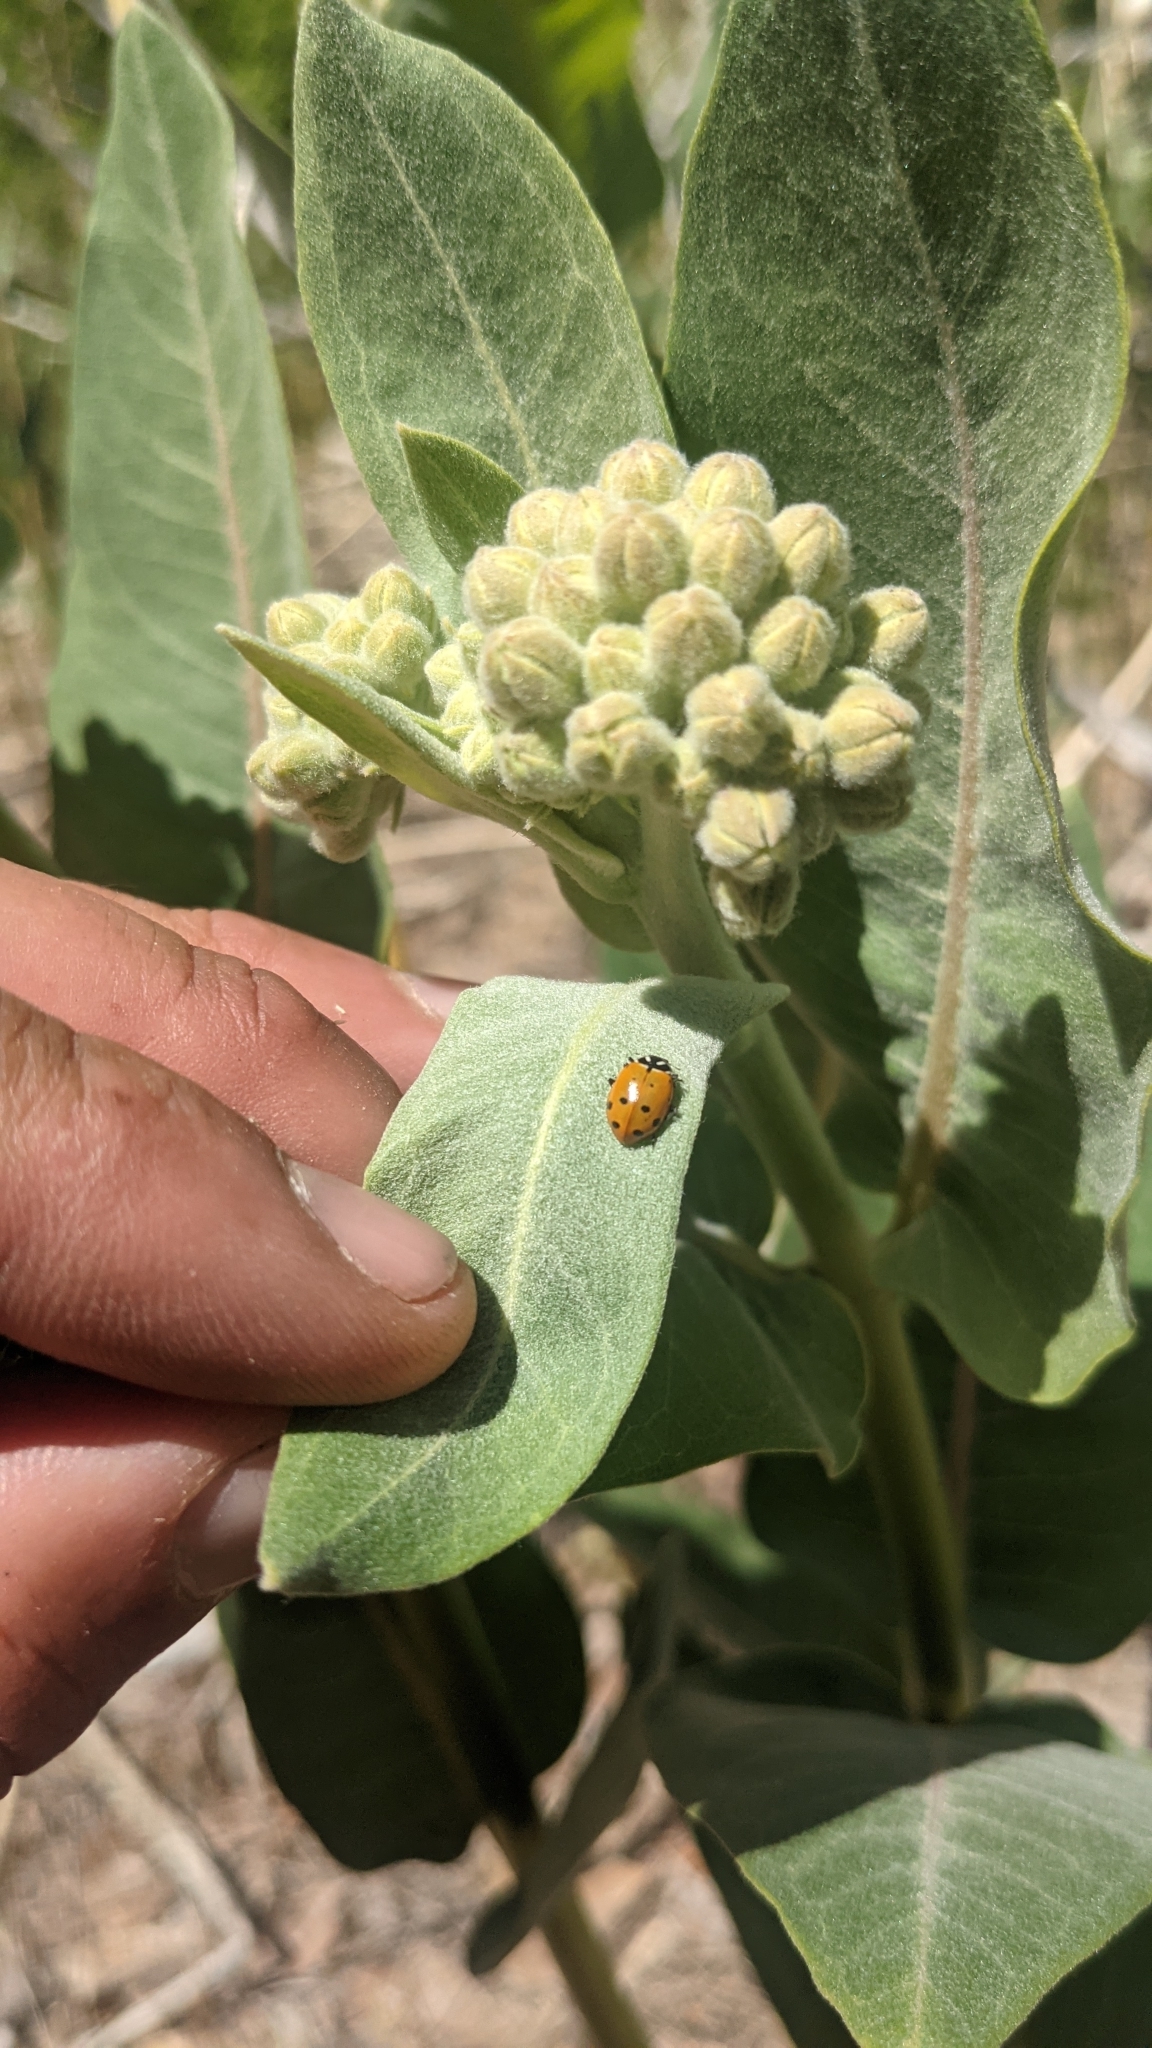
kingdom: Plantae
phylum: Tracheophyta
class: Magnoliopsida
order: Gentianales
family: Apocynaceae
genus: Asclepias
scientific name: Asclepias speciosa
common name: Showy milkweed
